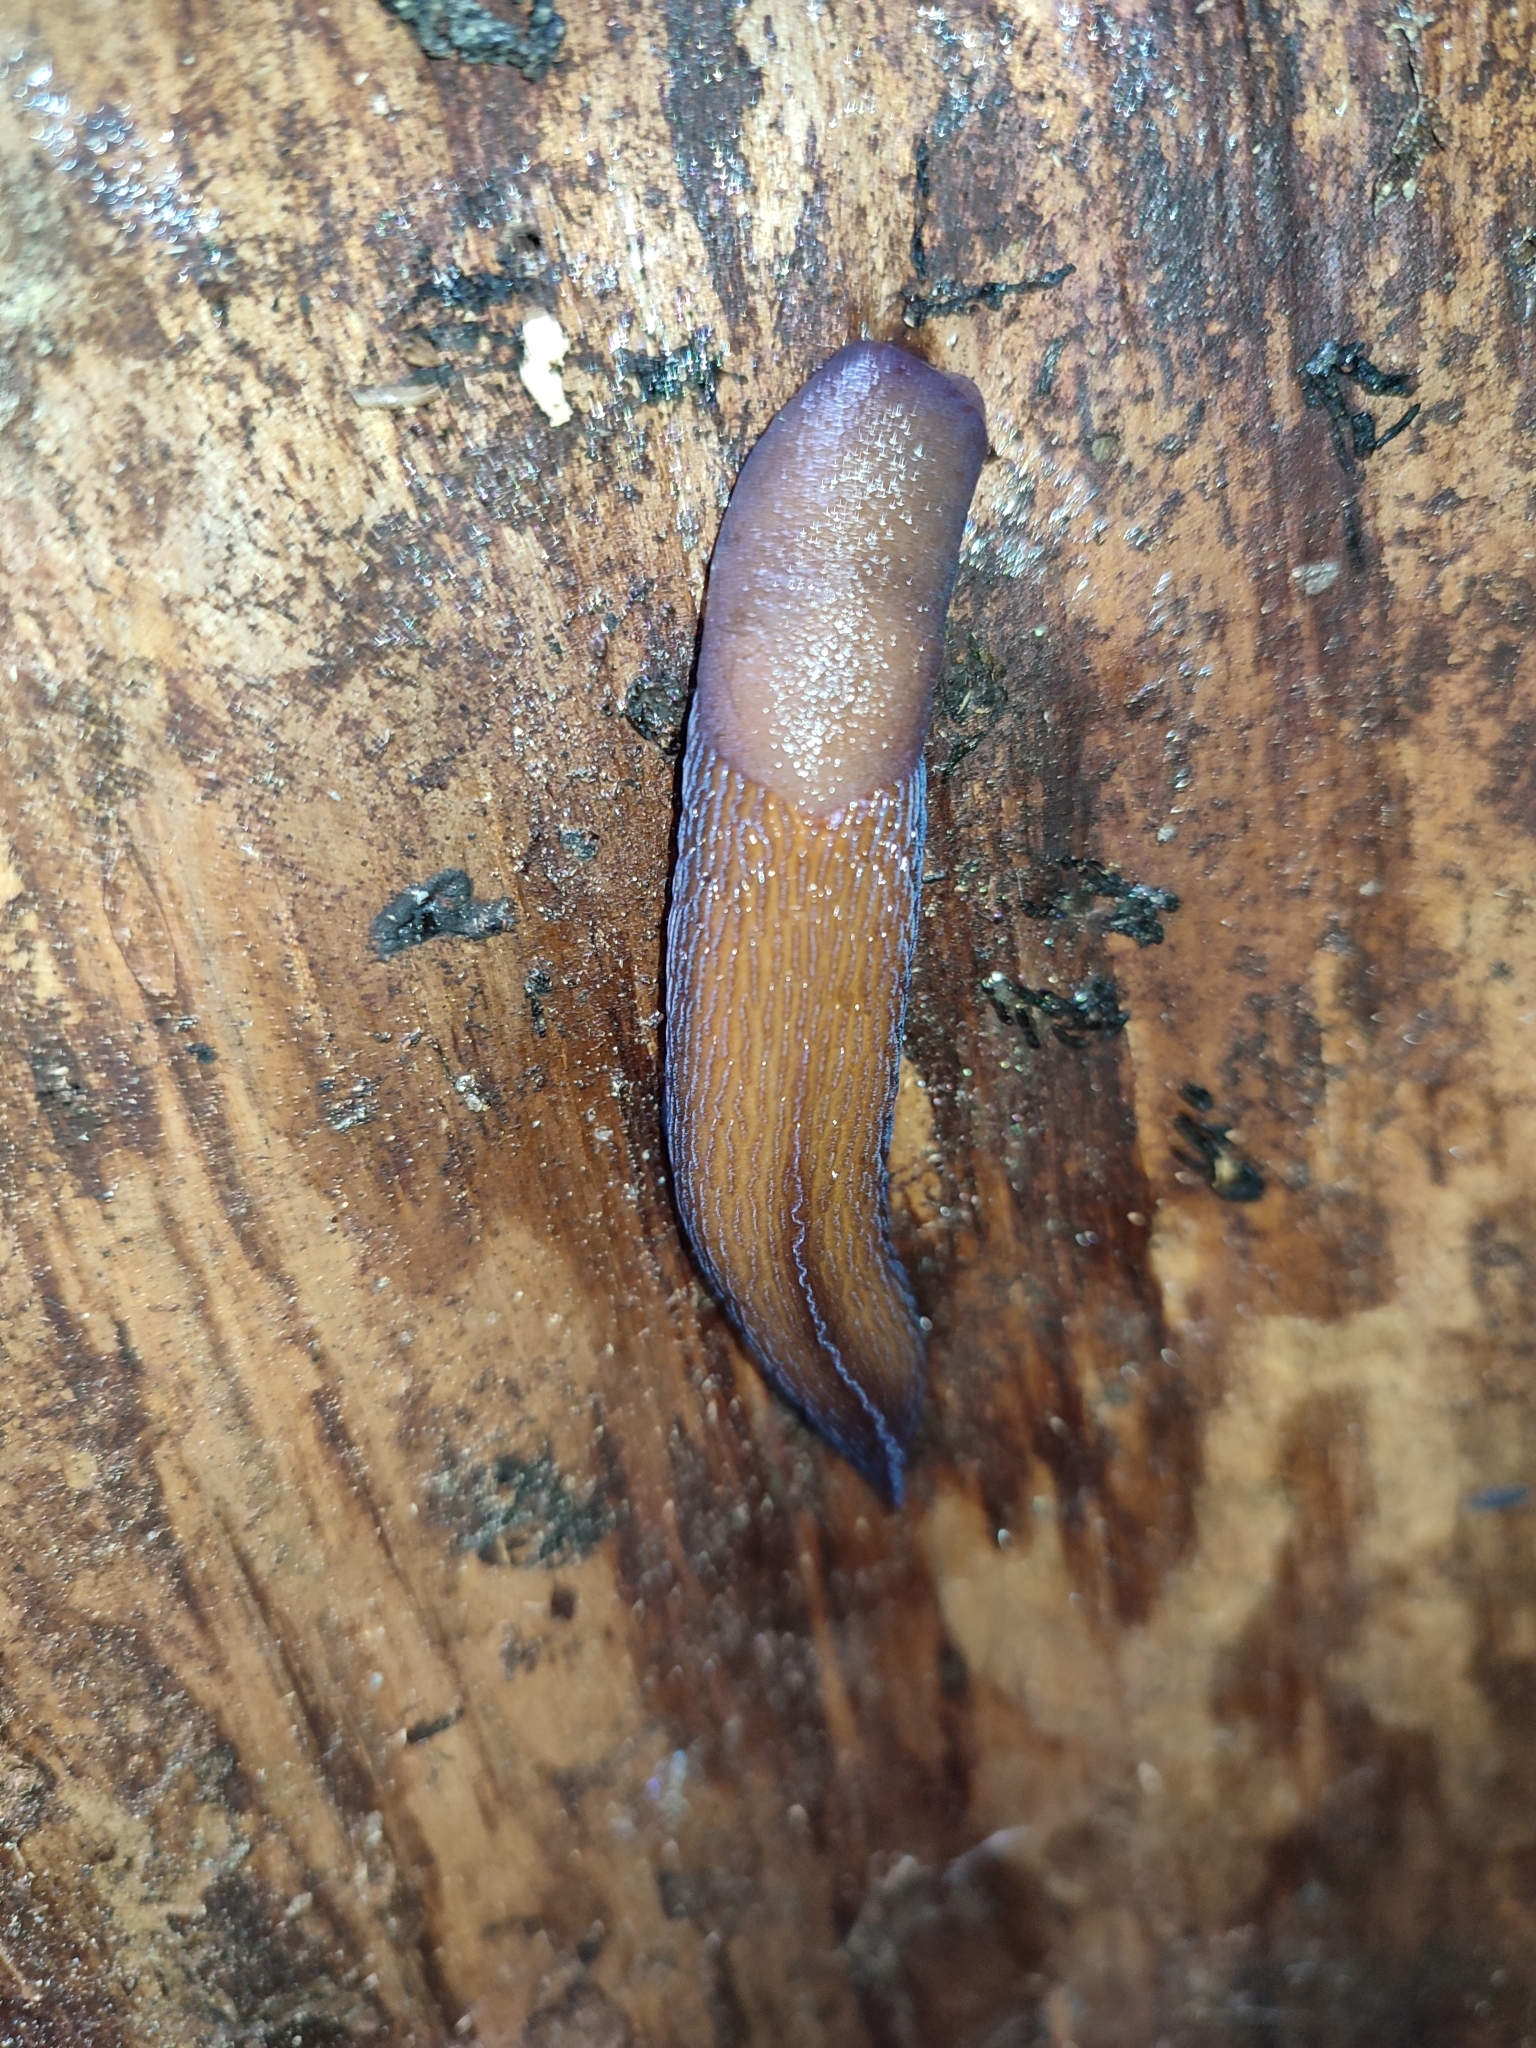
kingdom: Animalia
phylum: Mollusca
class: Gastropoda
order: Stylommatophora
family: Limacidae
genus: Bielzia
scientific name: Bielzia coerulans
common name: Carpathian blue slug
